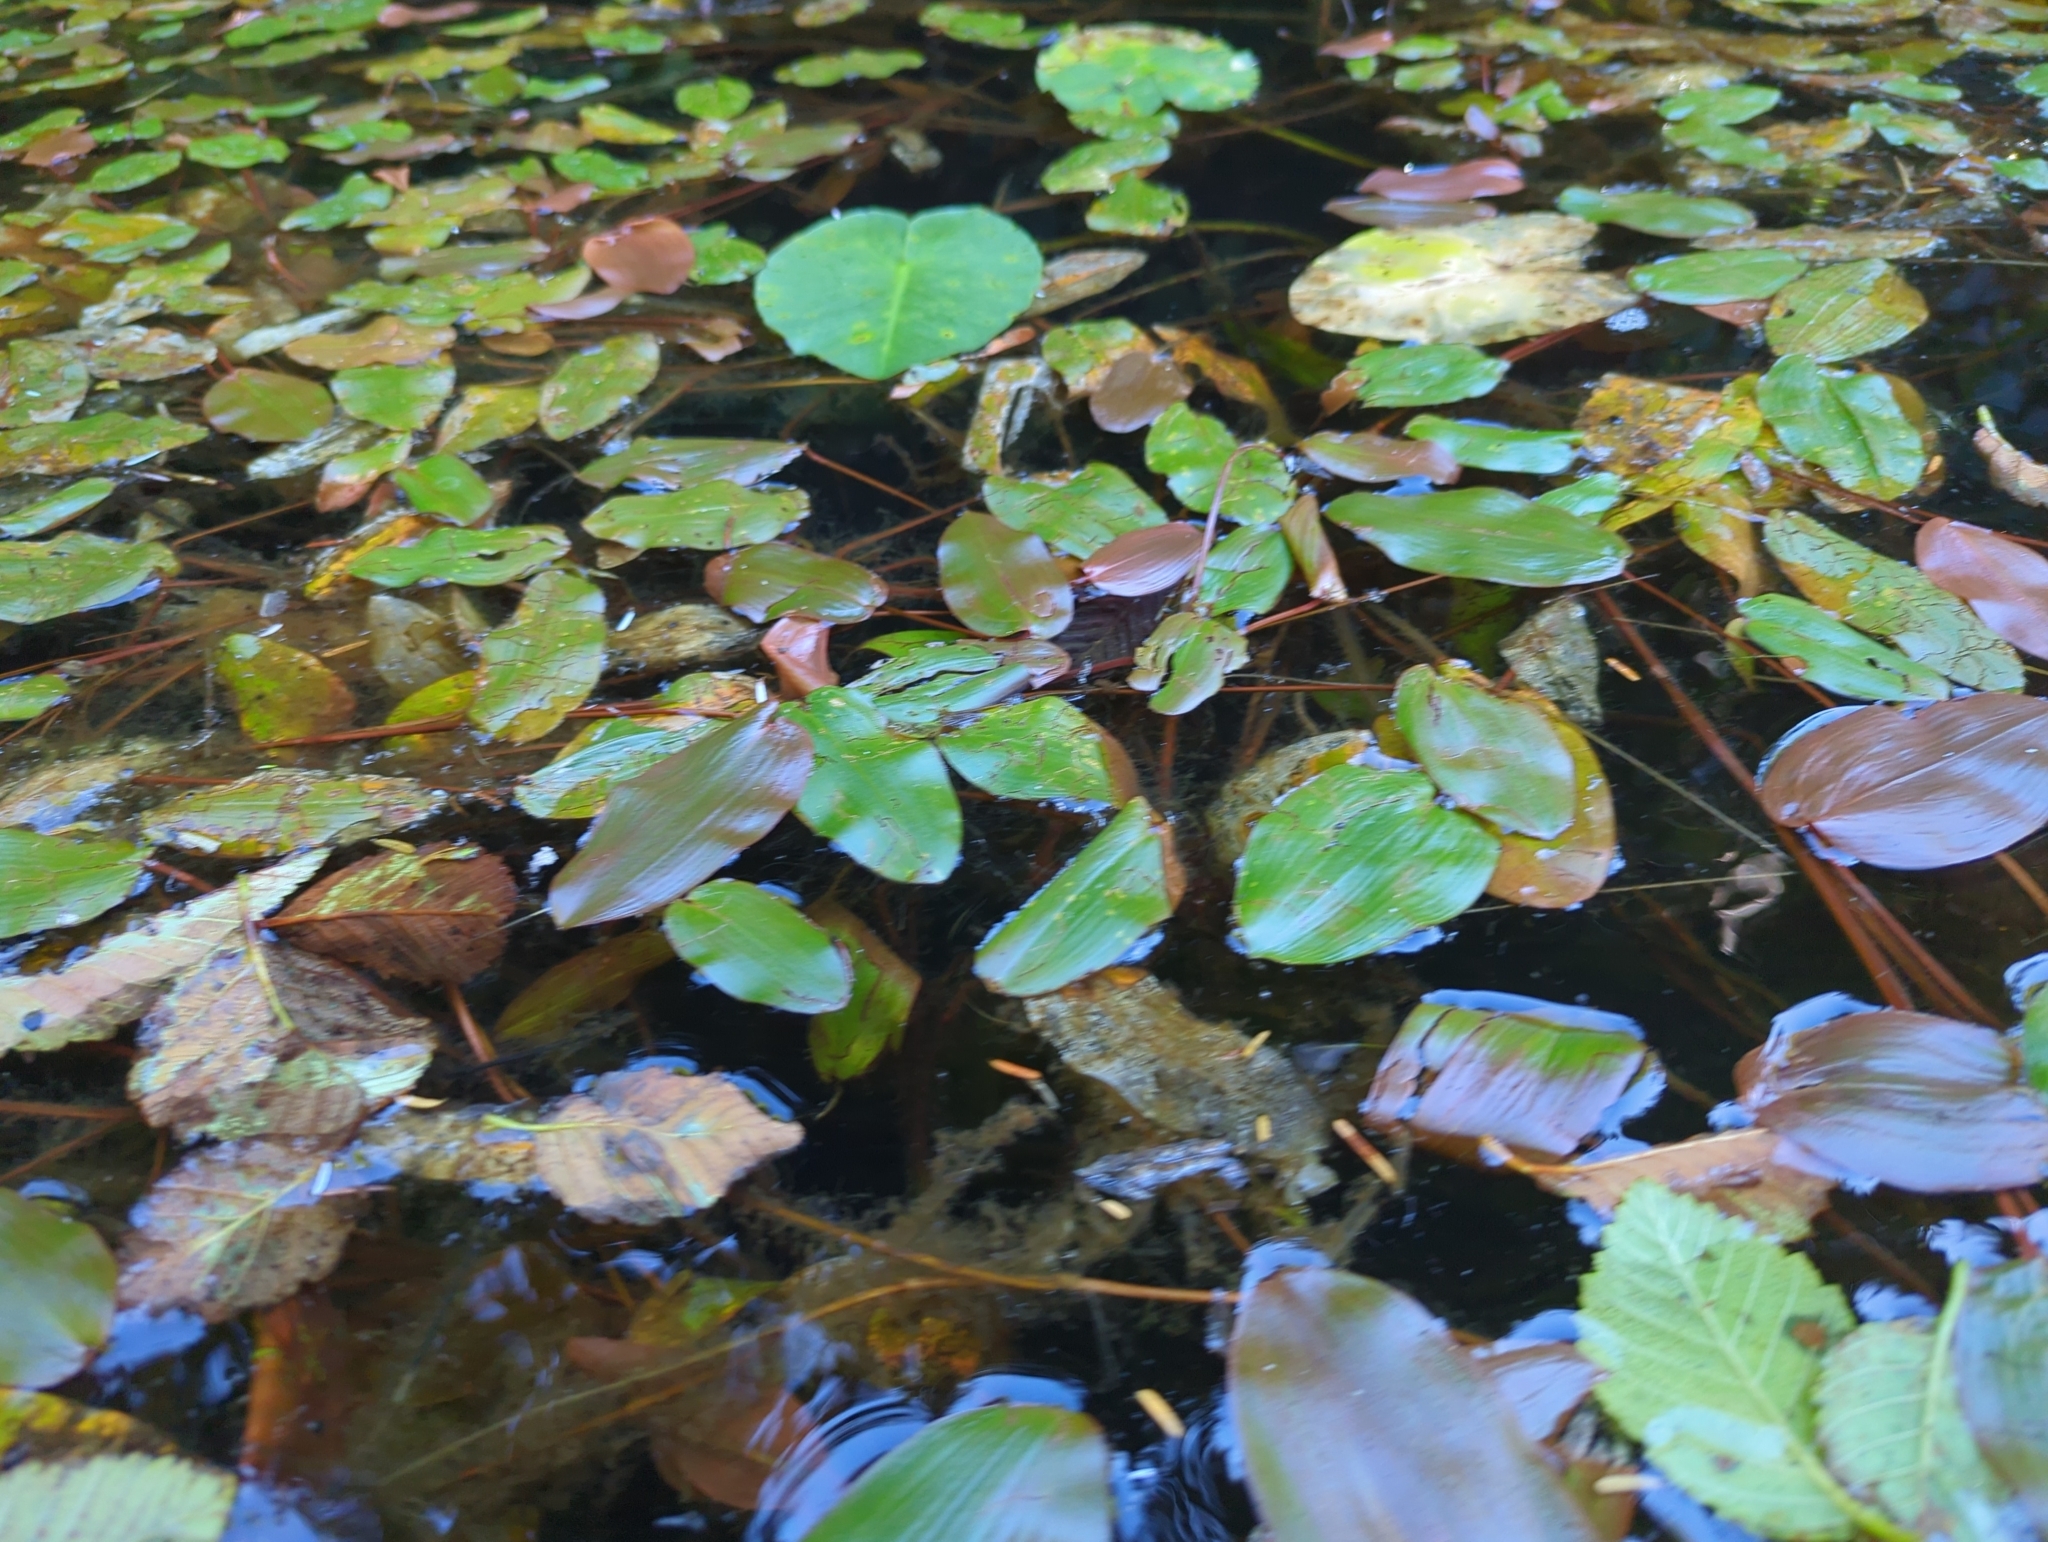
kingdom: Plantae
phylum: Tracheophyta
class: Liliopsida
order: Alismatales
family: Potamogetonaceae
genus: Potamogeton
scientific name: Potamogeton natans
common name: Broad-leaved pondweed
